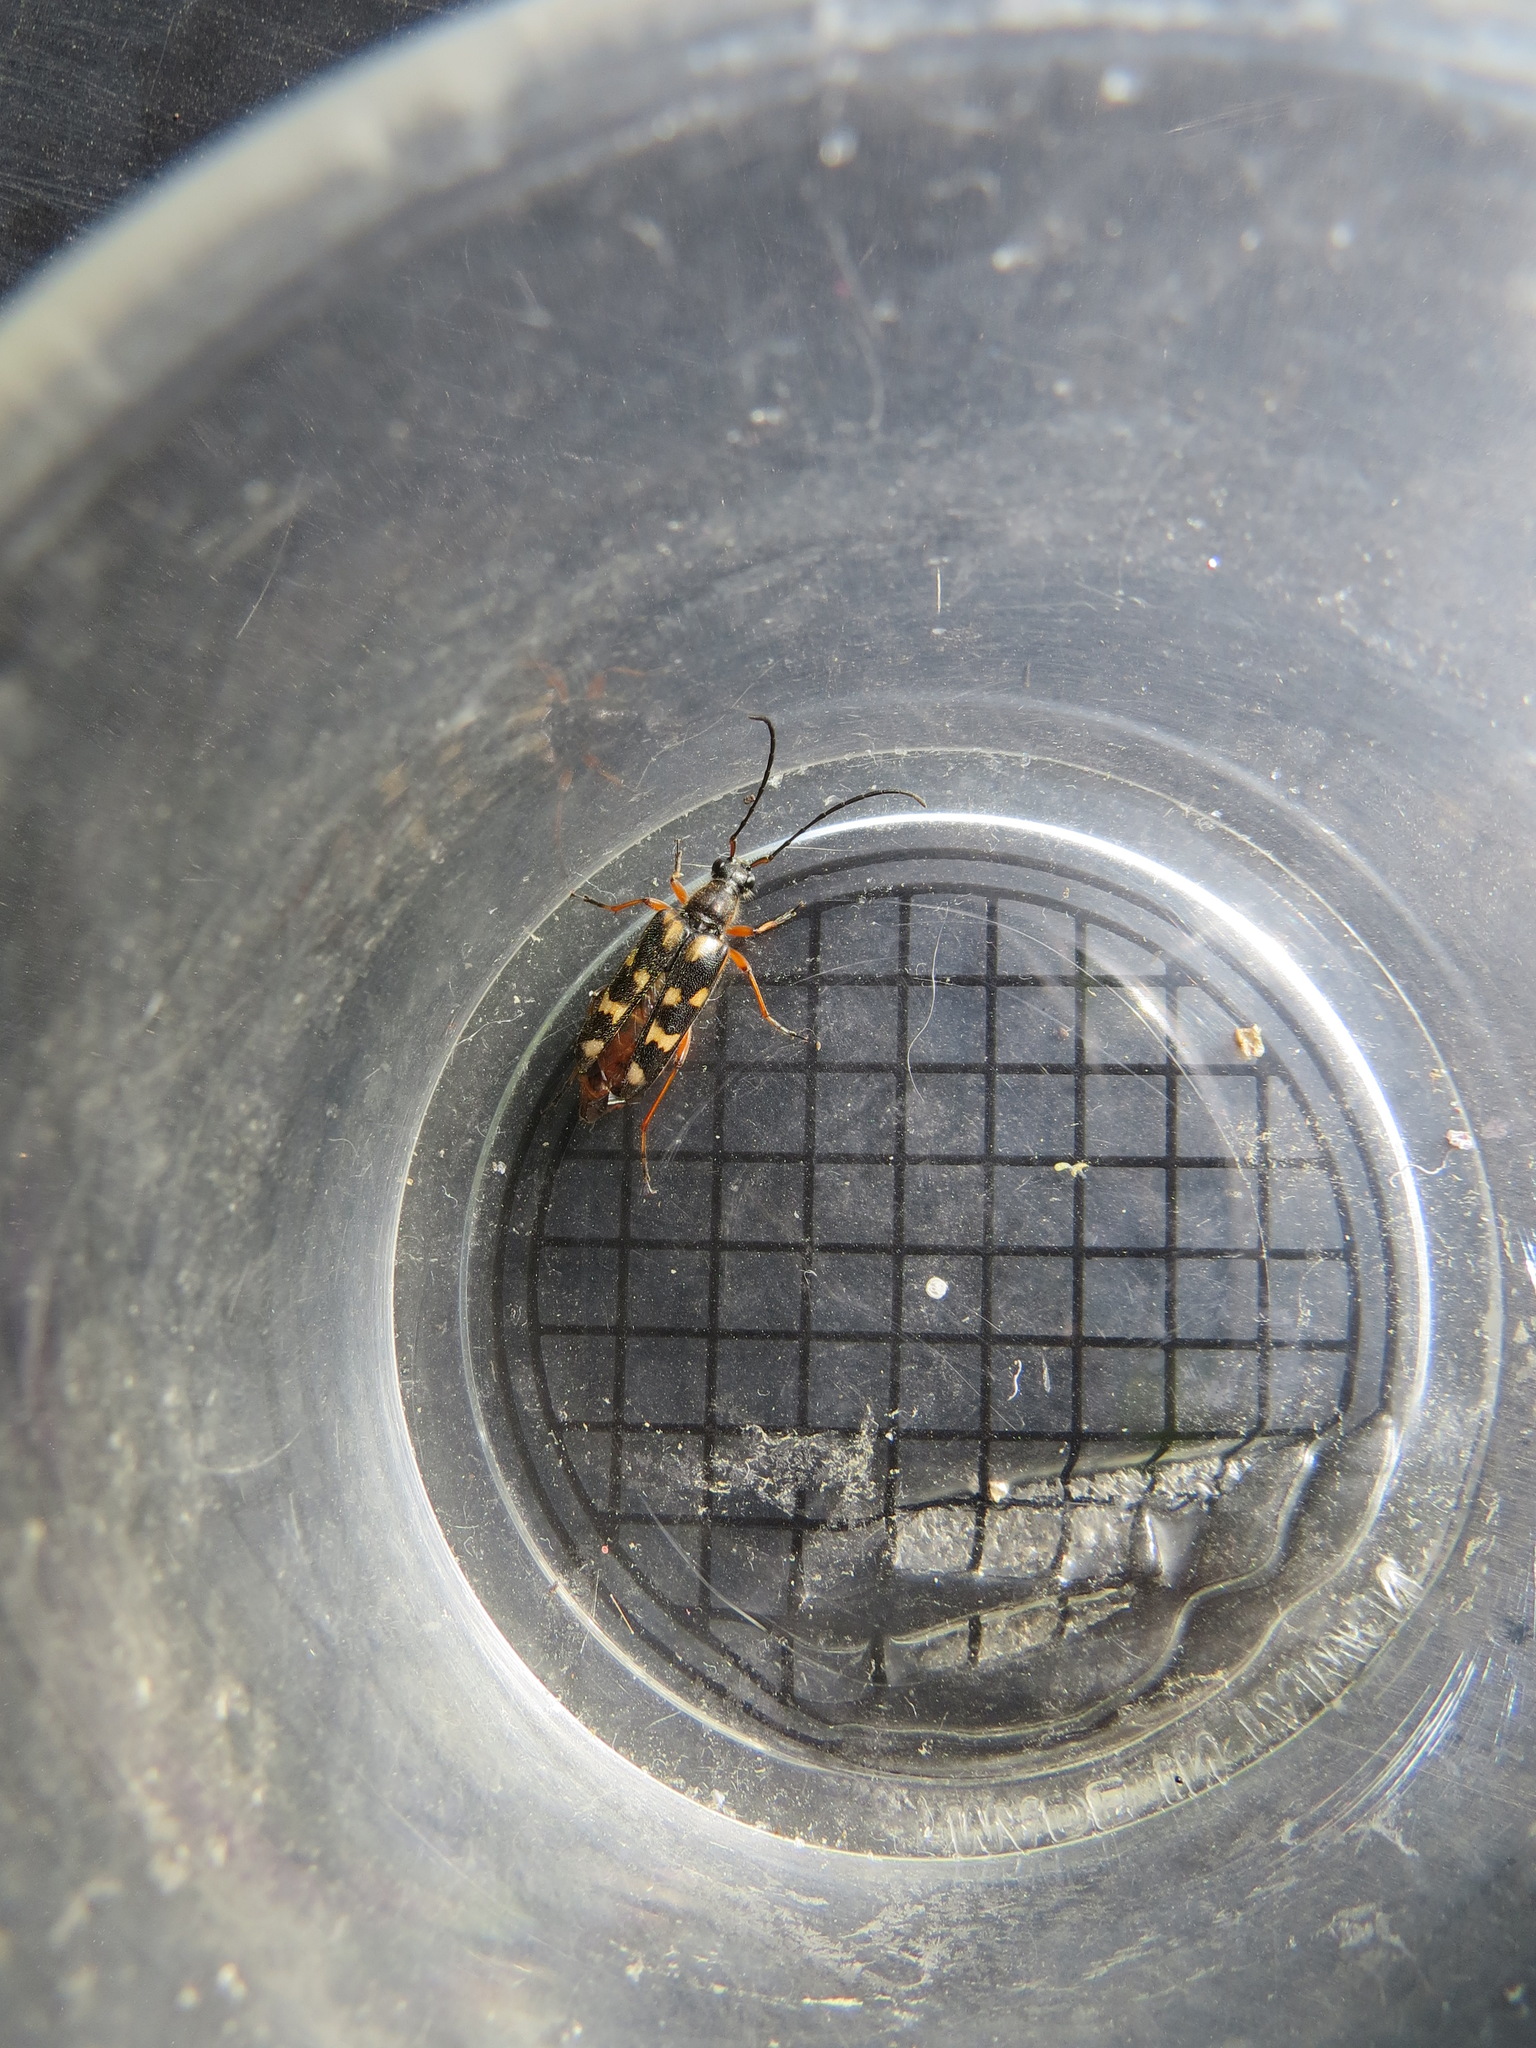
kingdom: Animalia
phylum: Arthropoda
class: Insecta
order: Coleoptera
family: Cerambycidae
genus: Xestoleptura
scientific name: Xestoleptura behrensii
